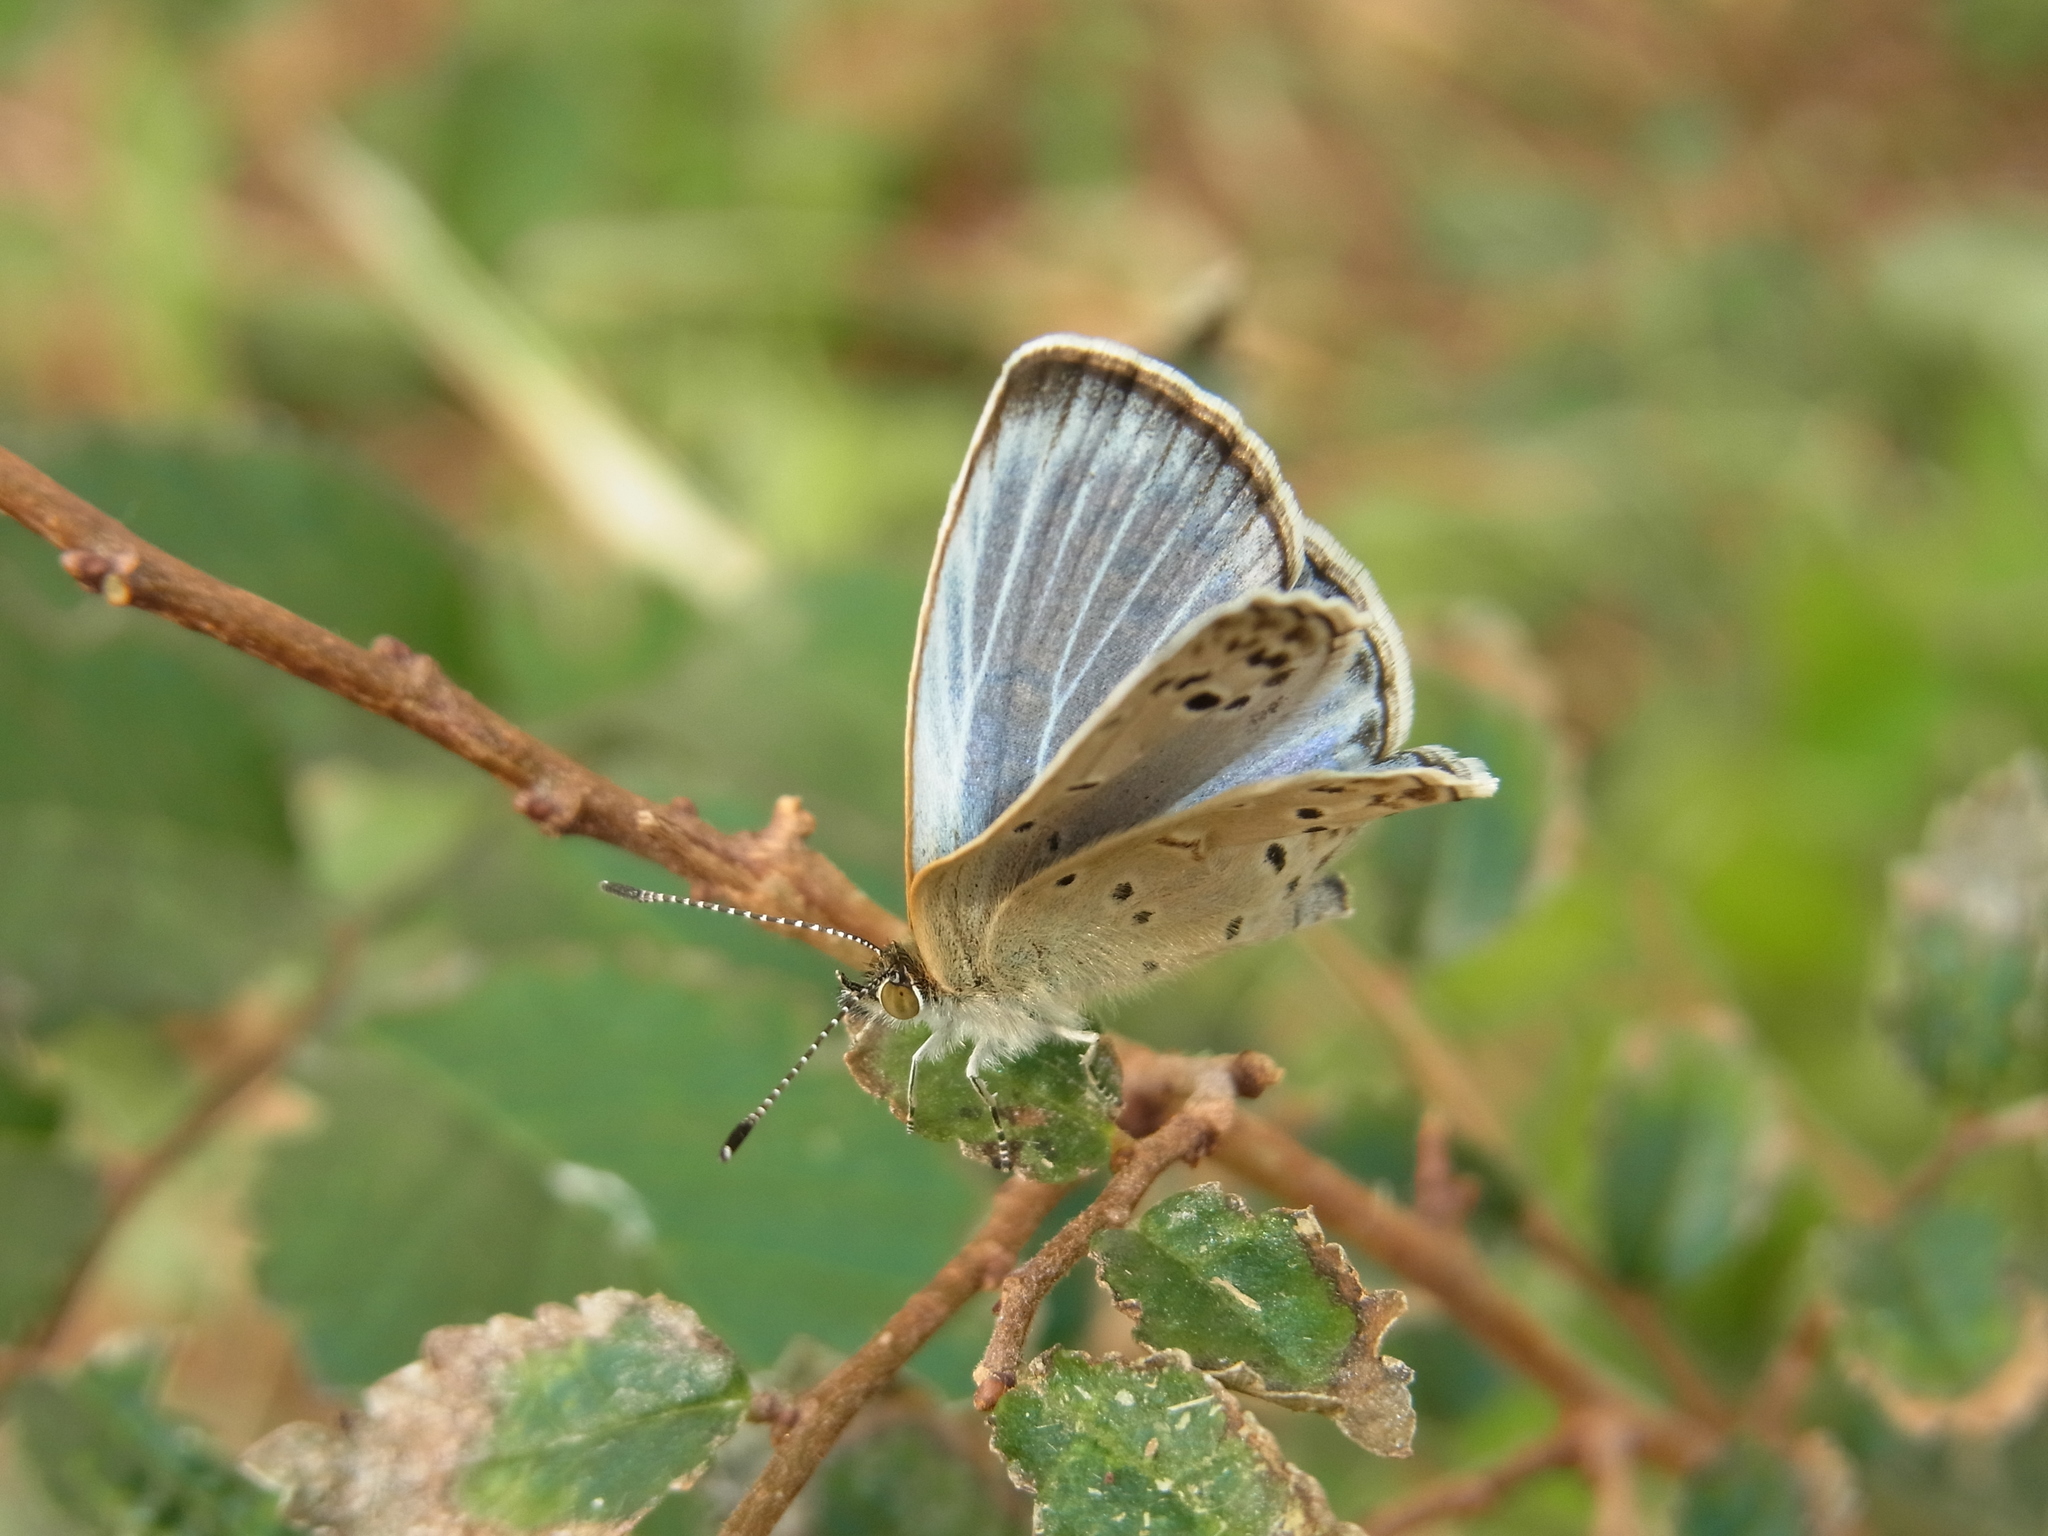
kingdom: Animalia
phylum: Arthropoda
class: Insecta
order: Lepidoptera
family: Lycaenidae
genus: Pseudozizeeria
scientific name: Pseudozizeeria maha
